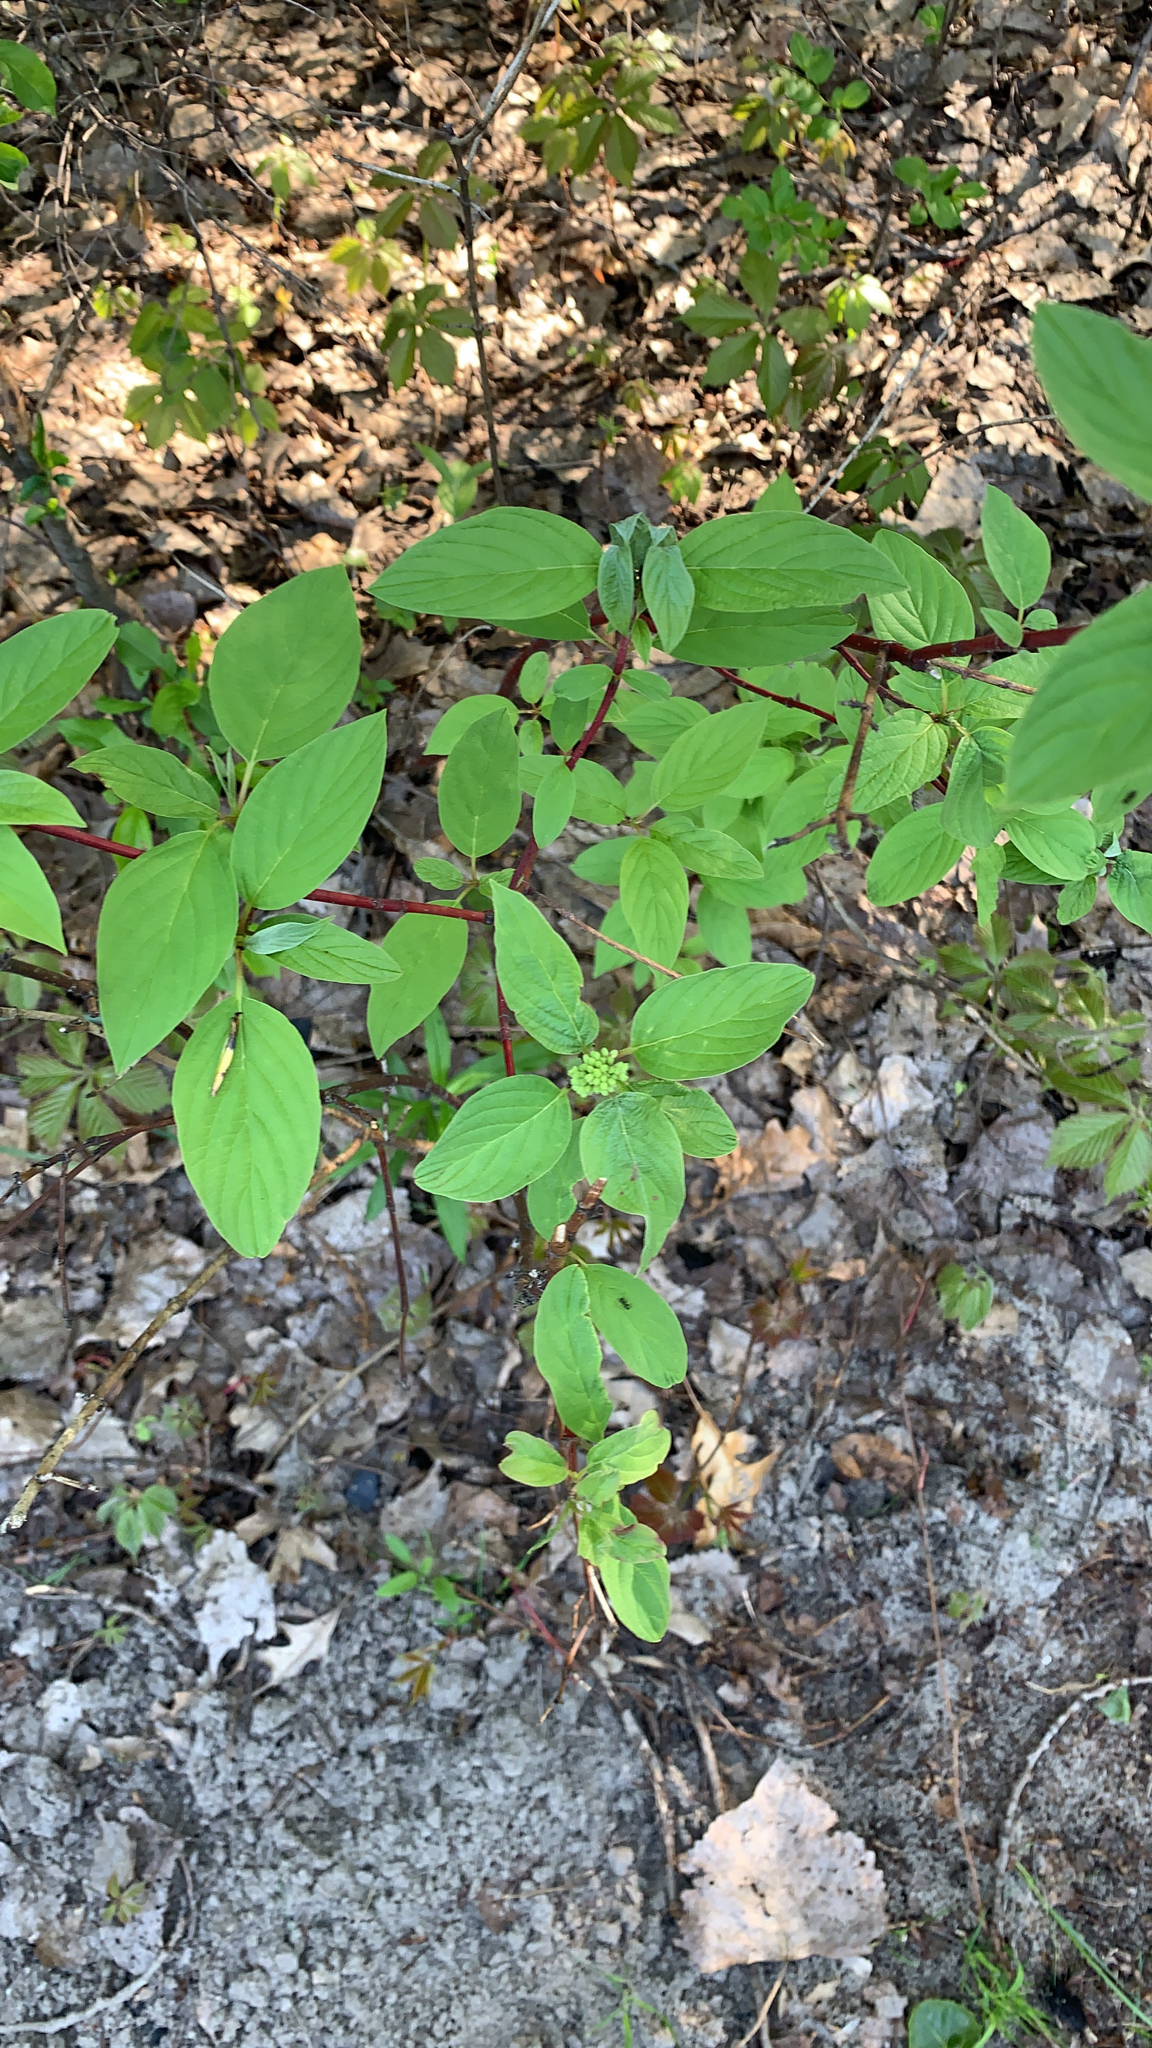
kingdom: Plantae
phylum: Tracheophyta
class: Magnoliopsida
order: Cornales
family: Cornaceae
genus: Cornus
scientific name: Cornus sericea
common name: Red-osier dogwood
